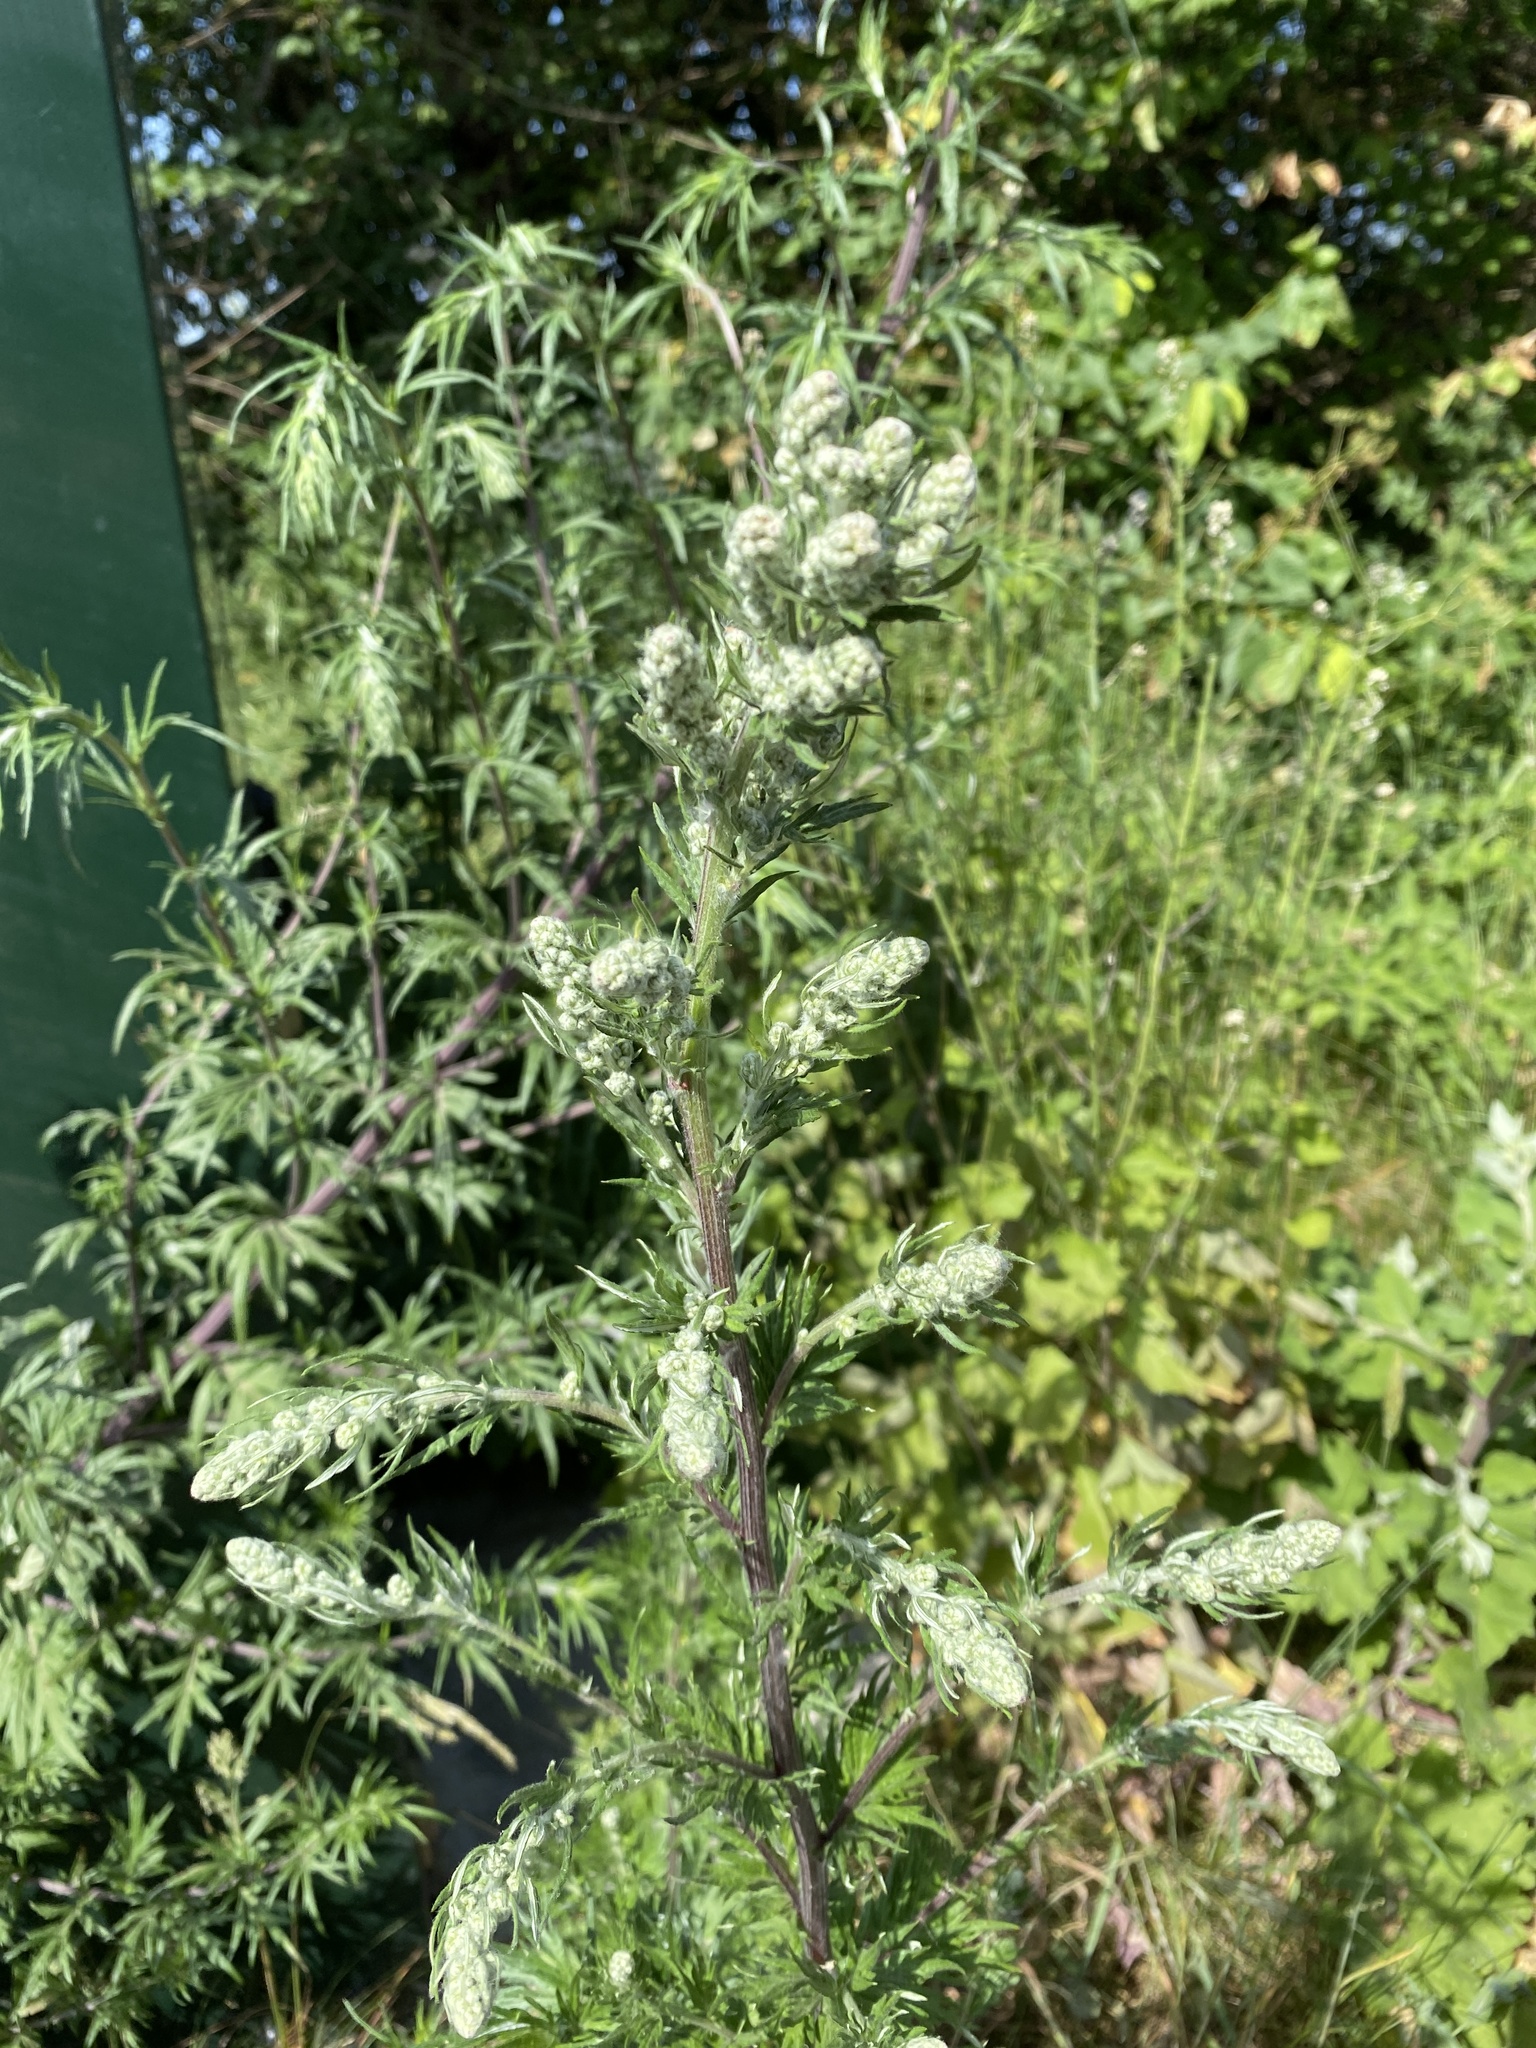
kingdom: Plantae
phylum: Tracheophyta
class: Magnoliopsida
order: Asterales
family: Asteraceae
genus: Artemisia
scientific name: Artemisia vulgaris
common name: Mugwort
